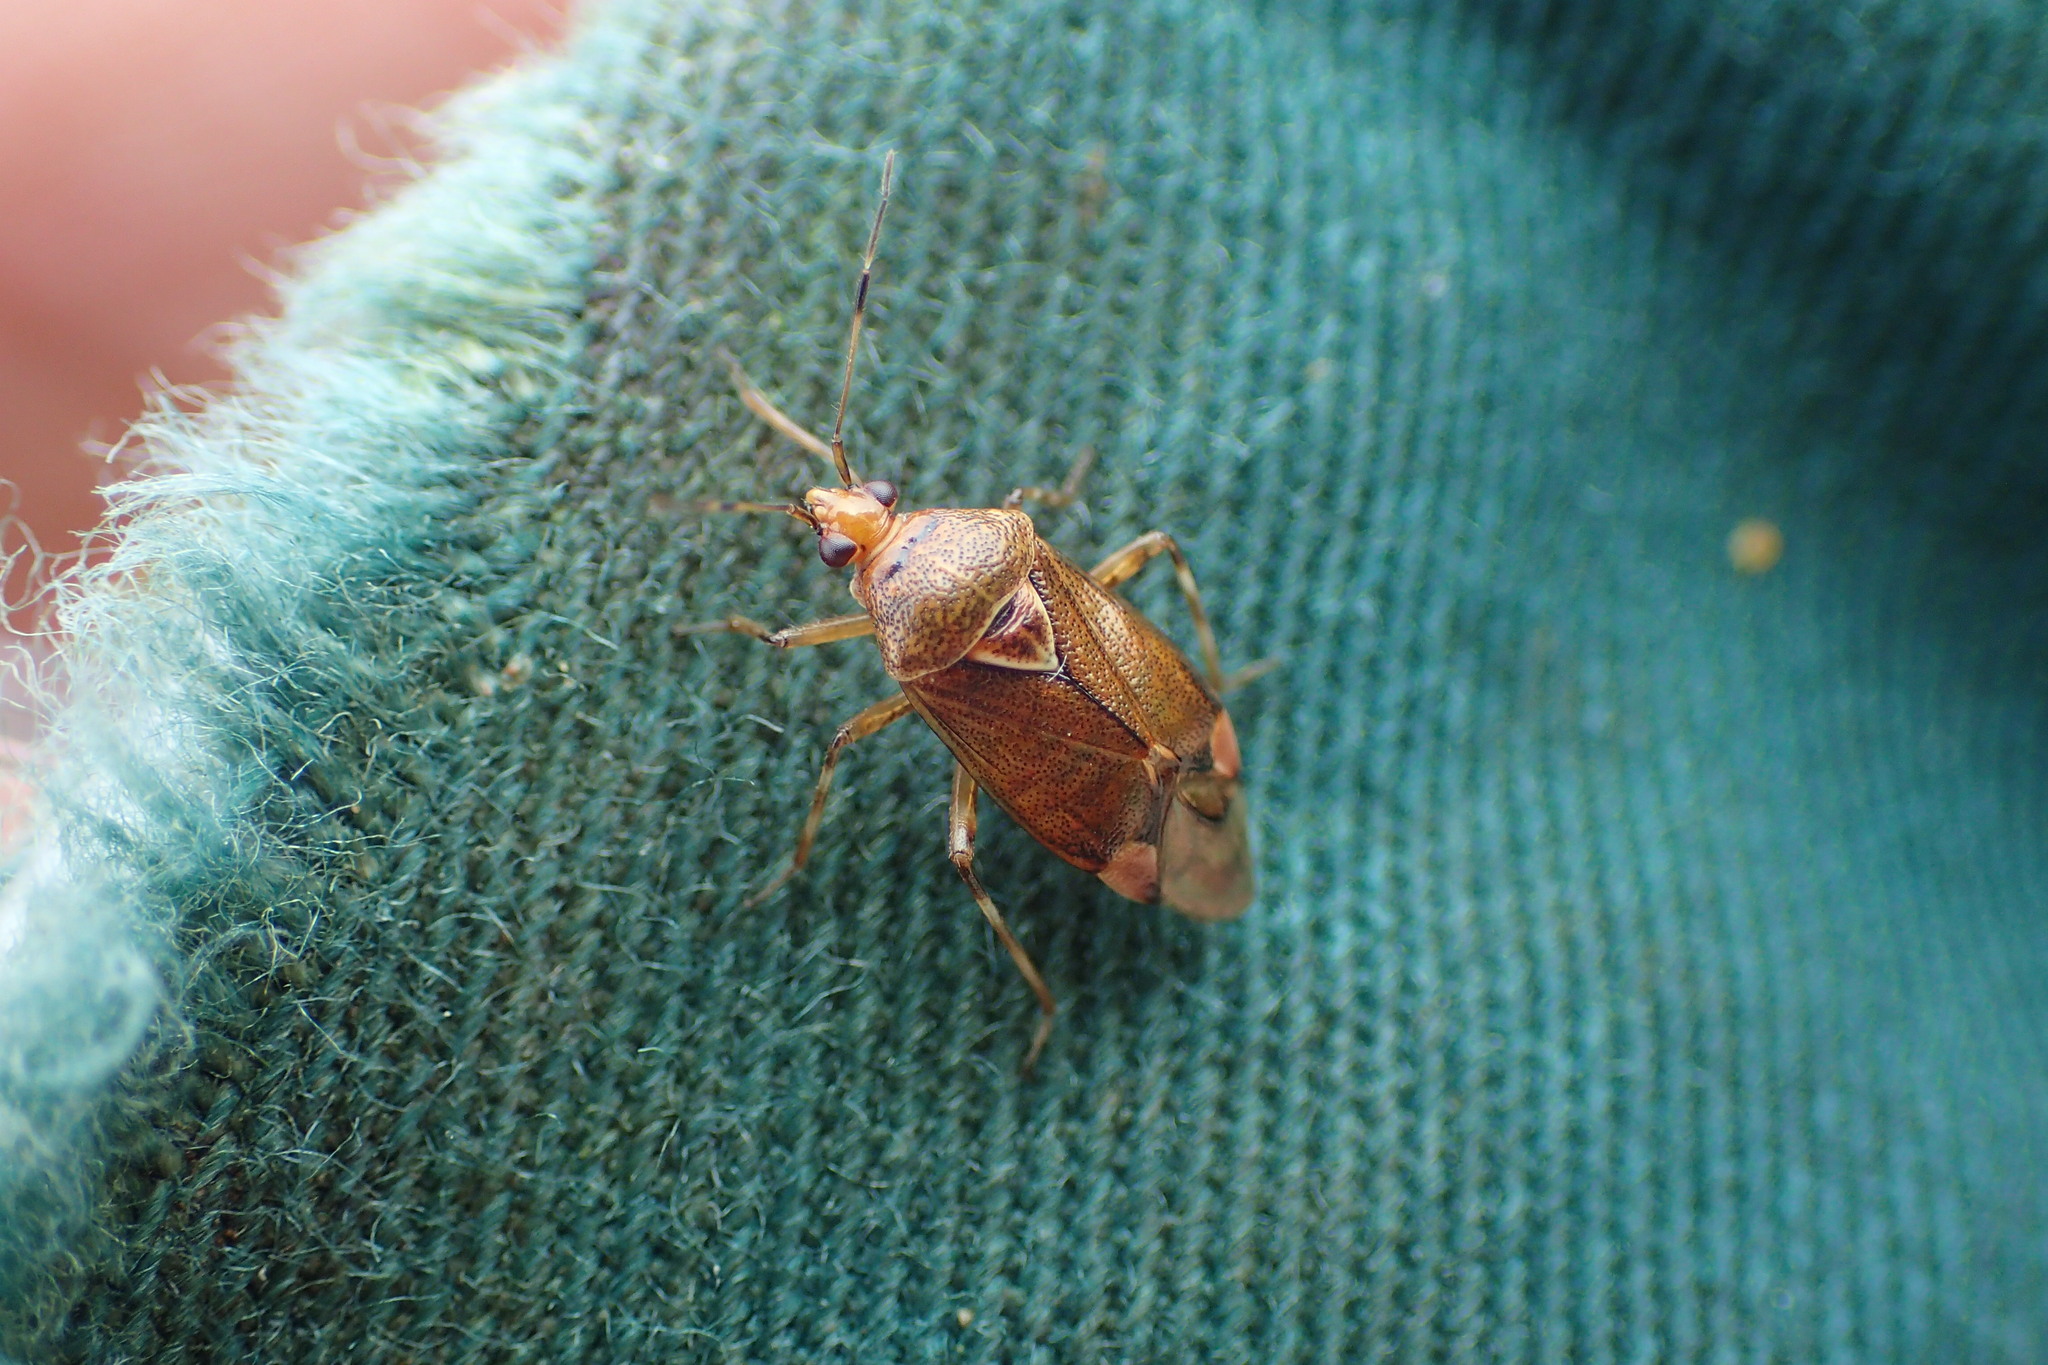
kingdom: Animalia
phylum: Arthropoda
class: Insecta
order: Hemiptera
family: Miridae
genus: Deraeocoris
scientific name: Deraeocoris flavilinea
